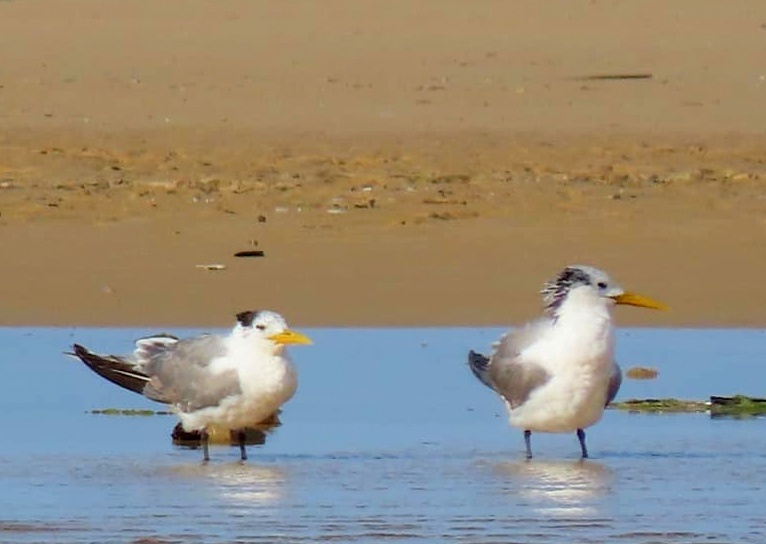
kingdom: Animalia
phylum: Chordata
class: Aves
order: Charadriiformes
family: Laridae
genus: Thalasseus
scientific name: Thalasseus bergii
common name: Greater crested tern
